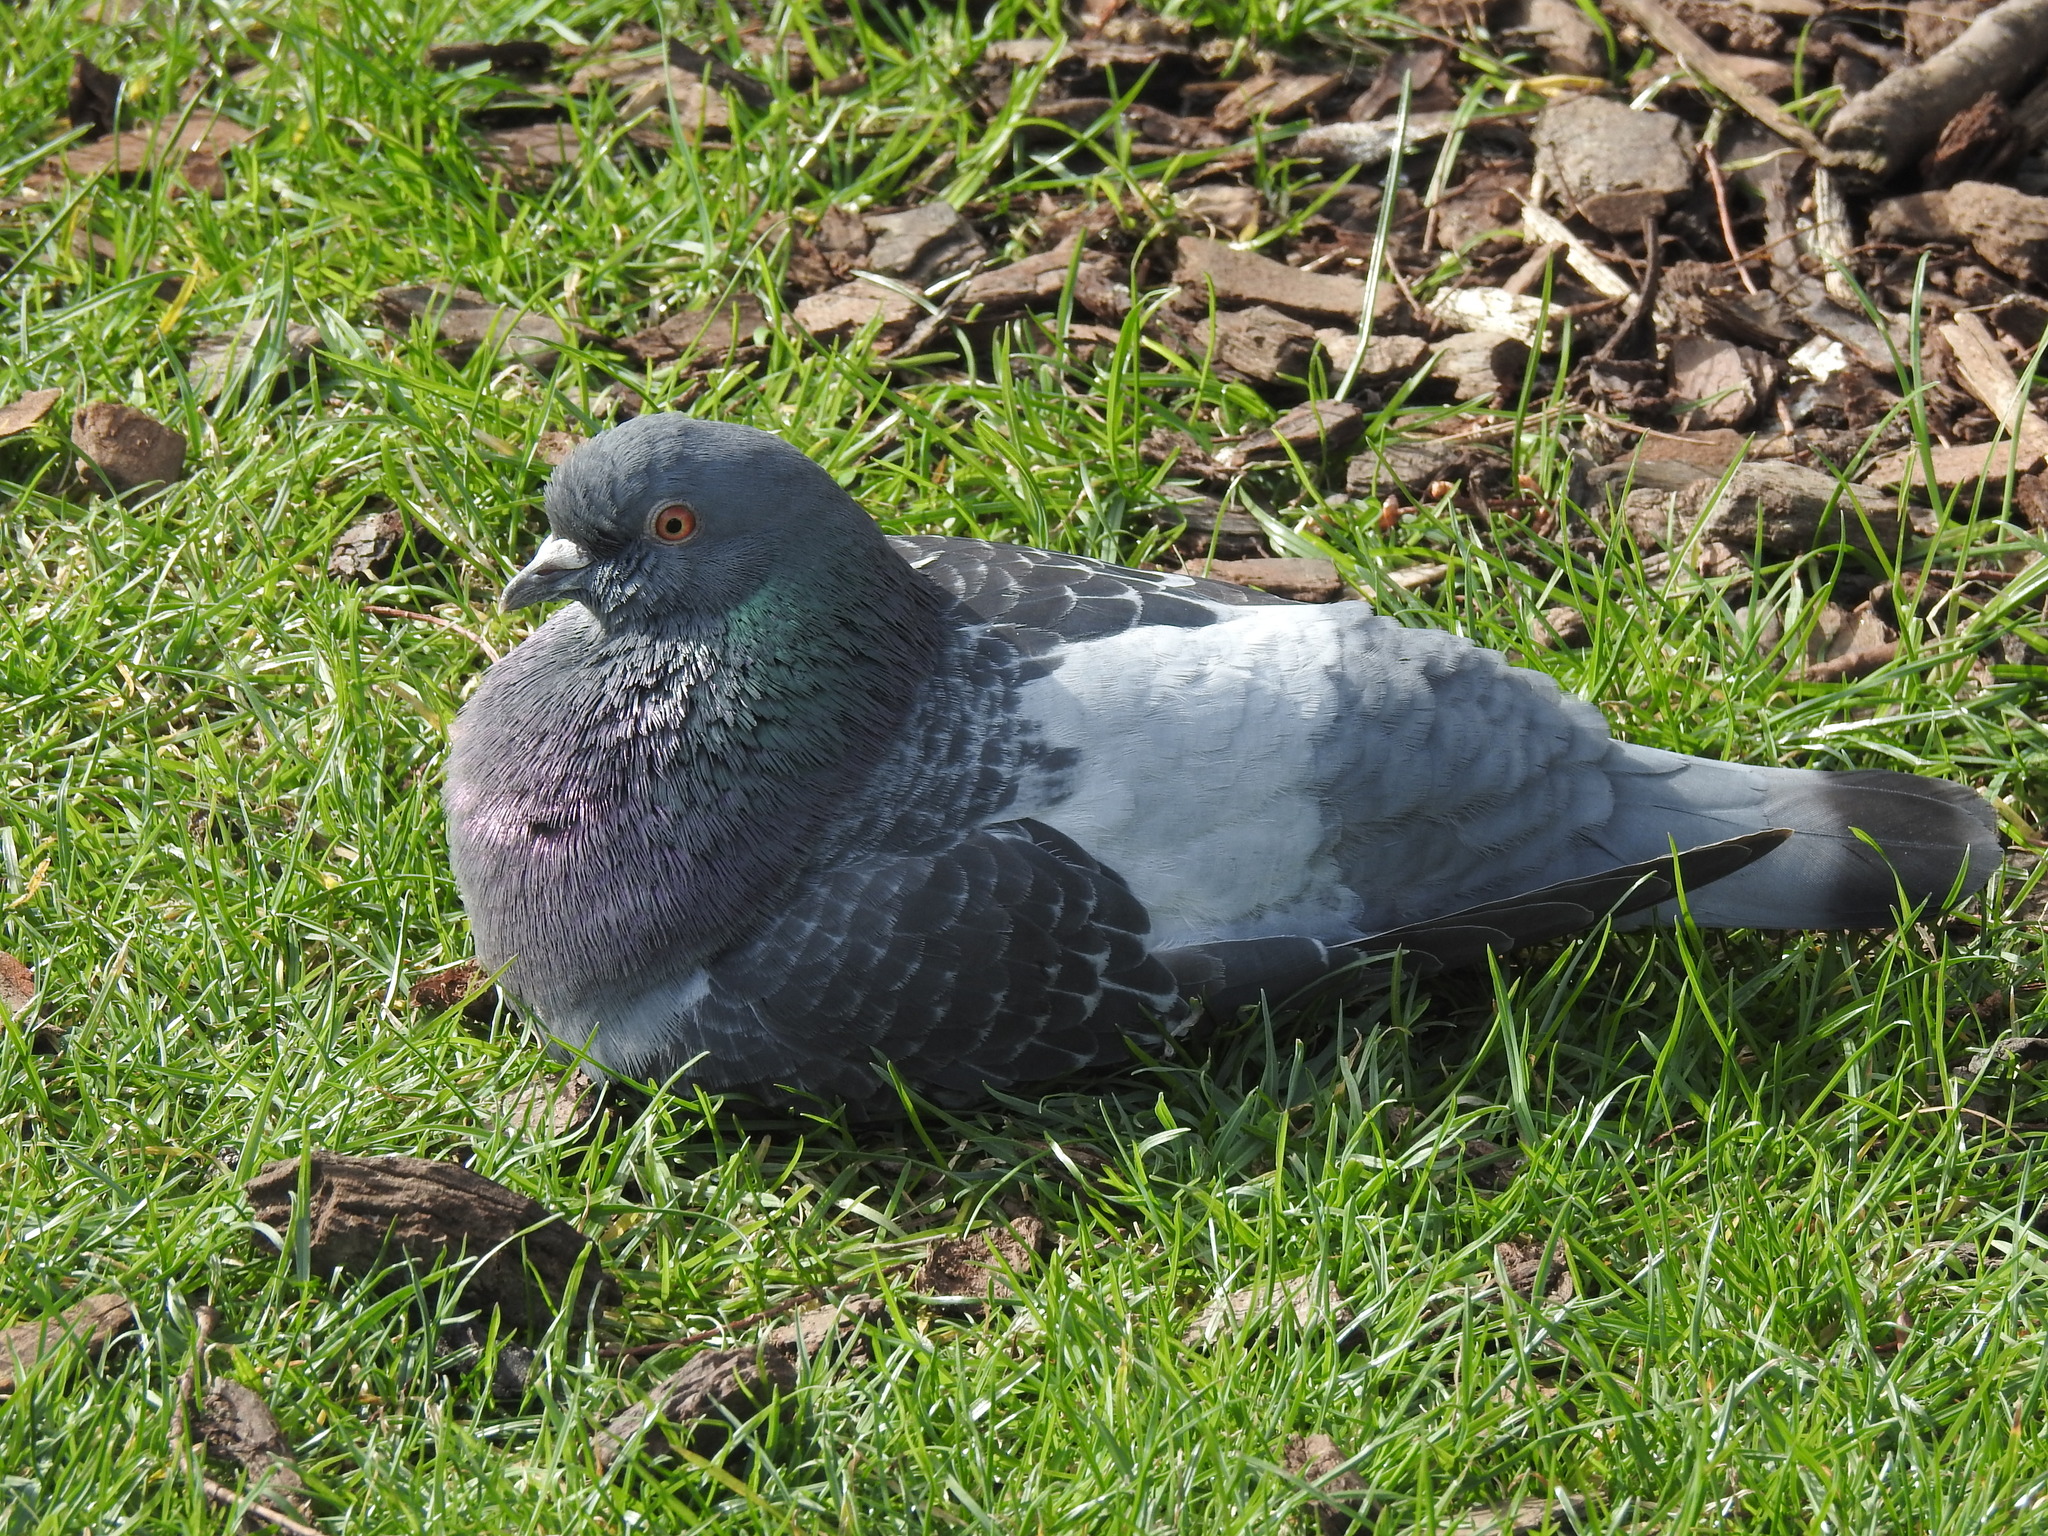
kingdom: Animalia
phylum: Chordata
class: Aves
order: Columbiformes
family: Columbidae
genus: Columba
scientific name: Columba livia
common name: Rock pigeon
